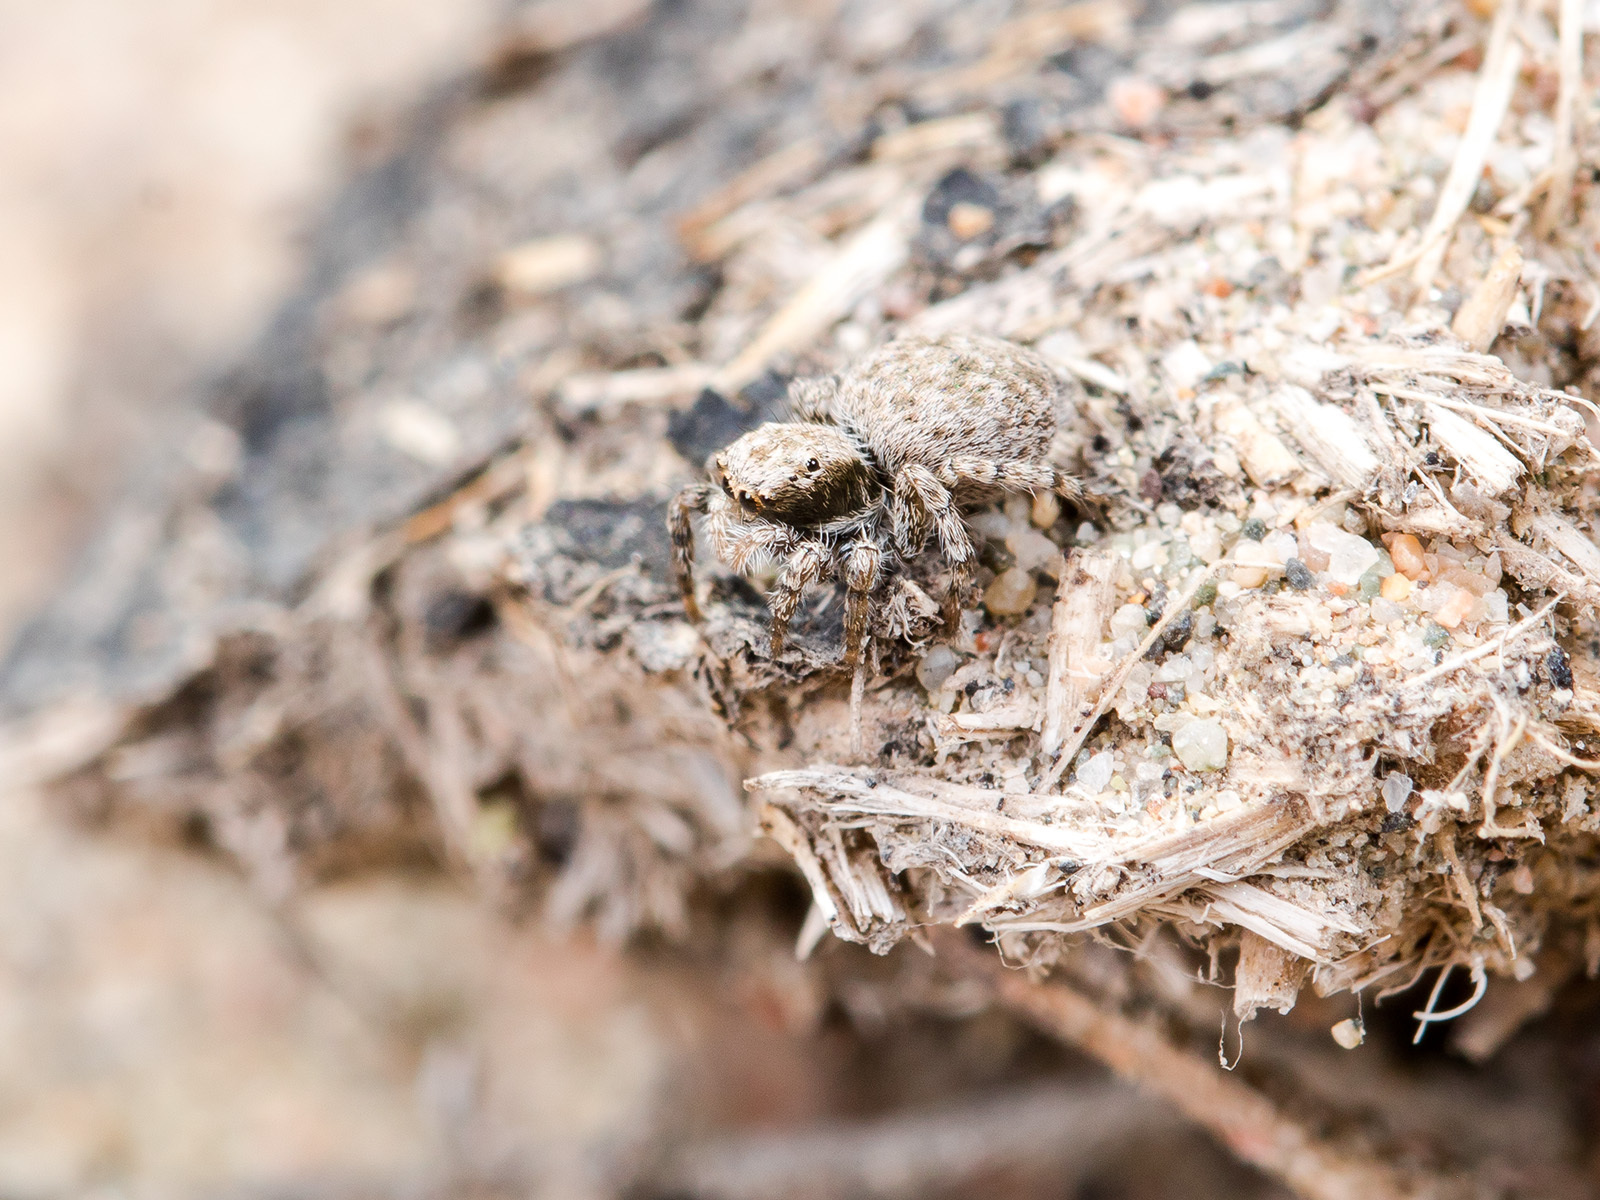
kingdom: Animalia
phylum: Arthropoda
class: Arachnida
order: Araneae
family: Salticidae
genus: Aelurillus
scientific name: Aelurillus andreevae
